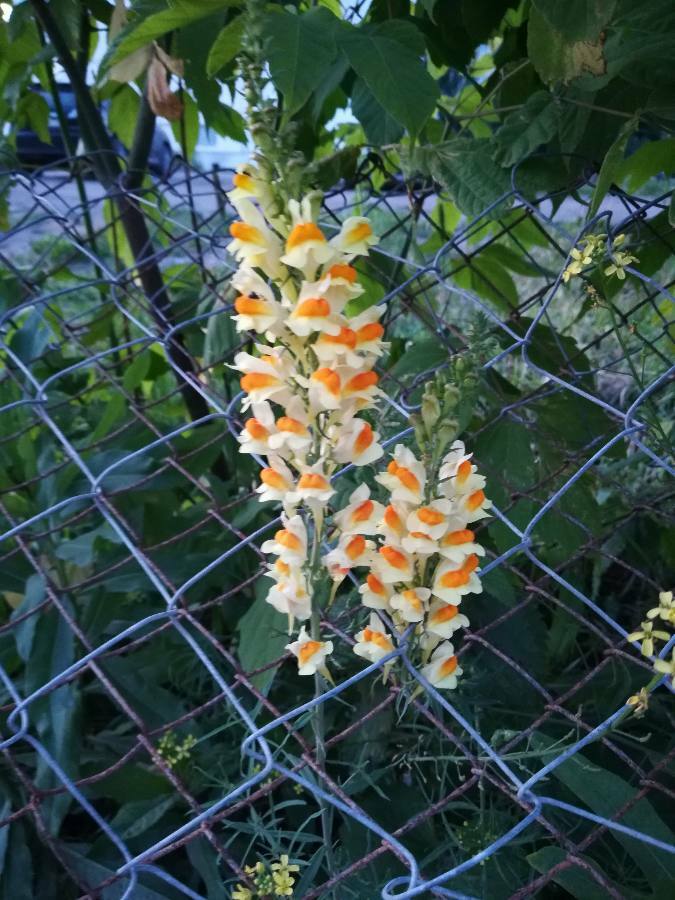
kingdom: Plantae
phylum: Tracheophyta
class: Magnoliopsida
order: Lamiales
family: Plantaginaceae
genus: Linaria
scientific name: Linaria vulgaris
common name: Butter and eggs
